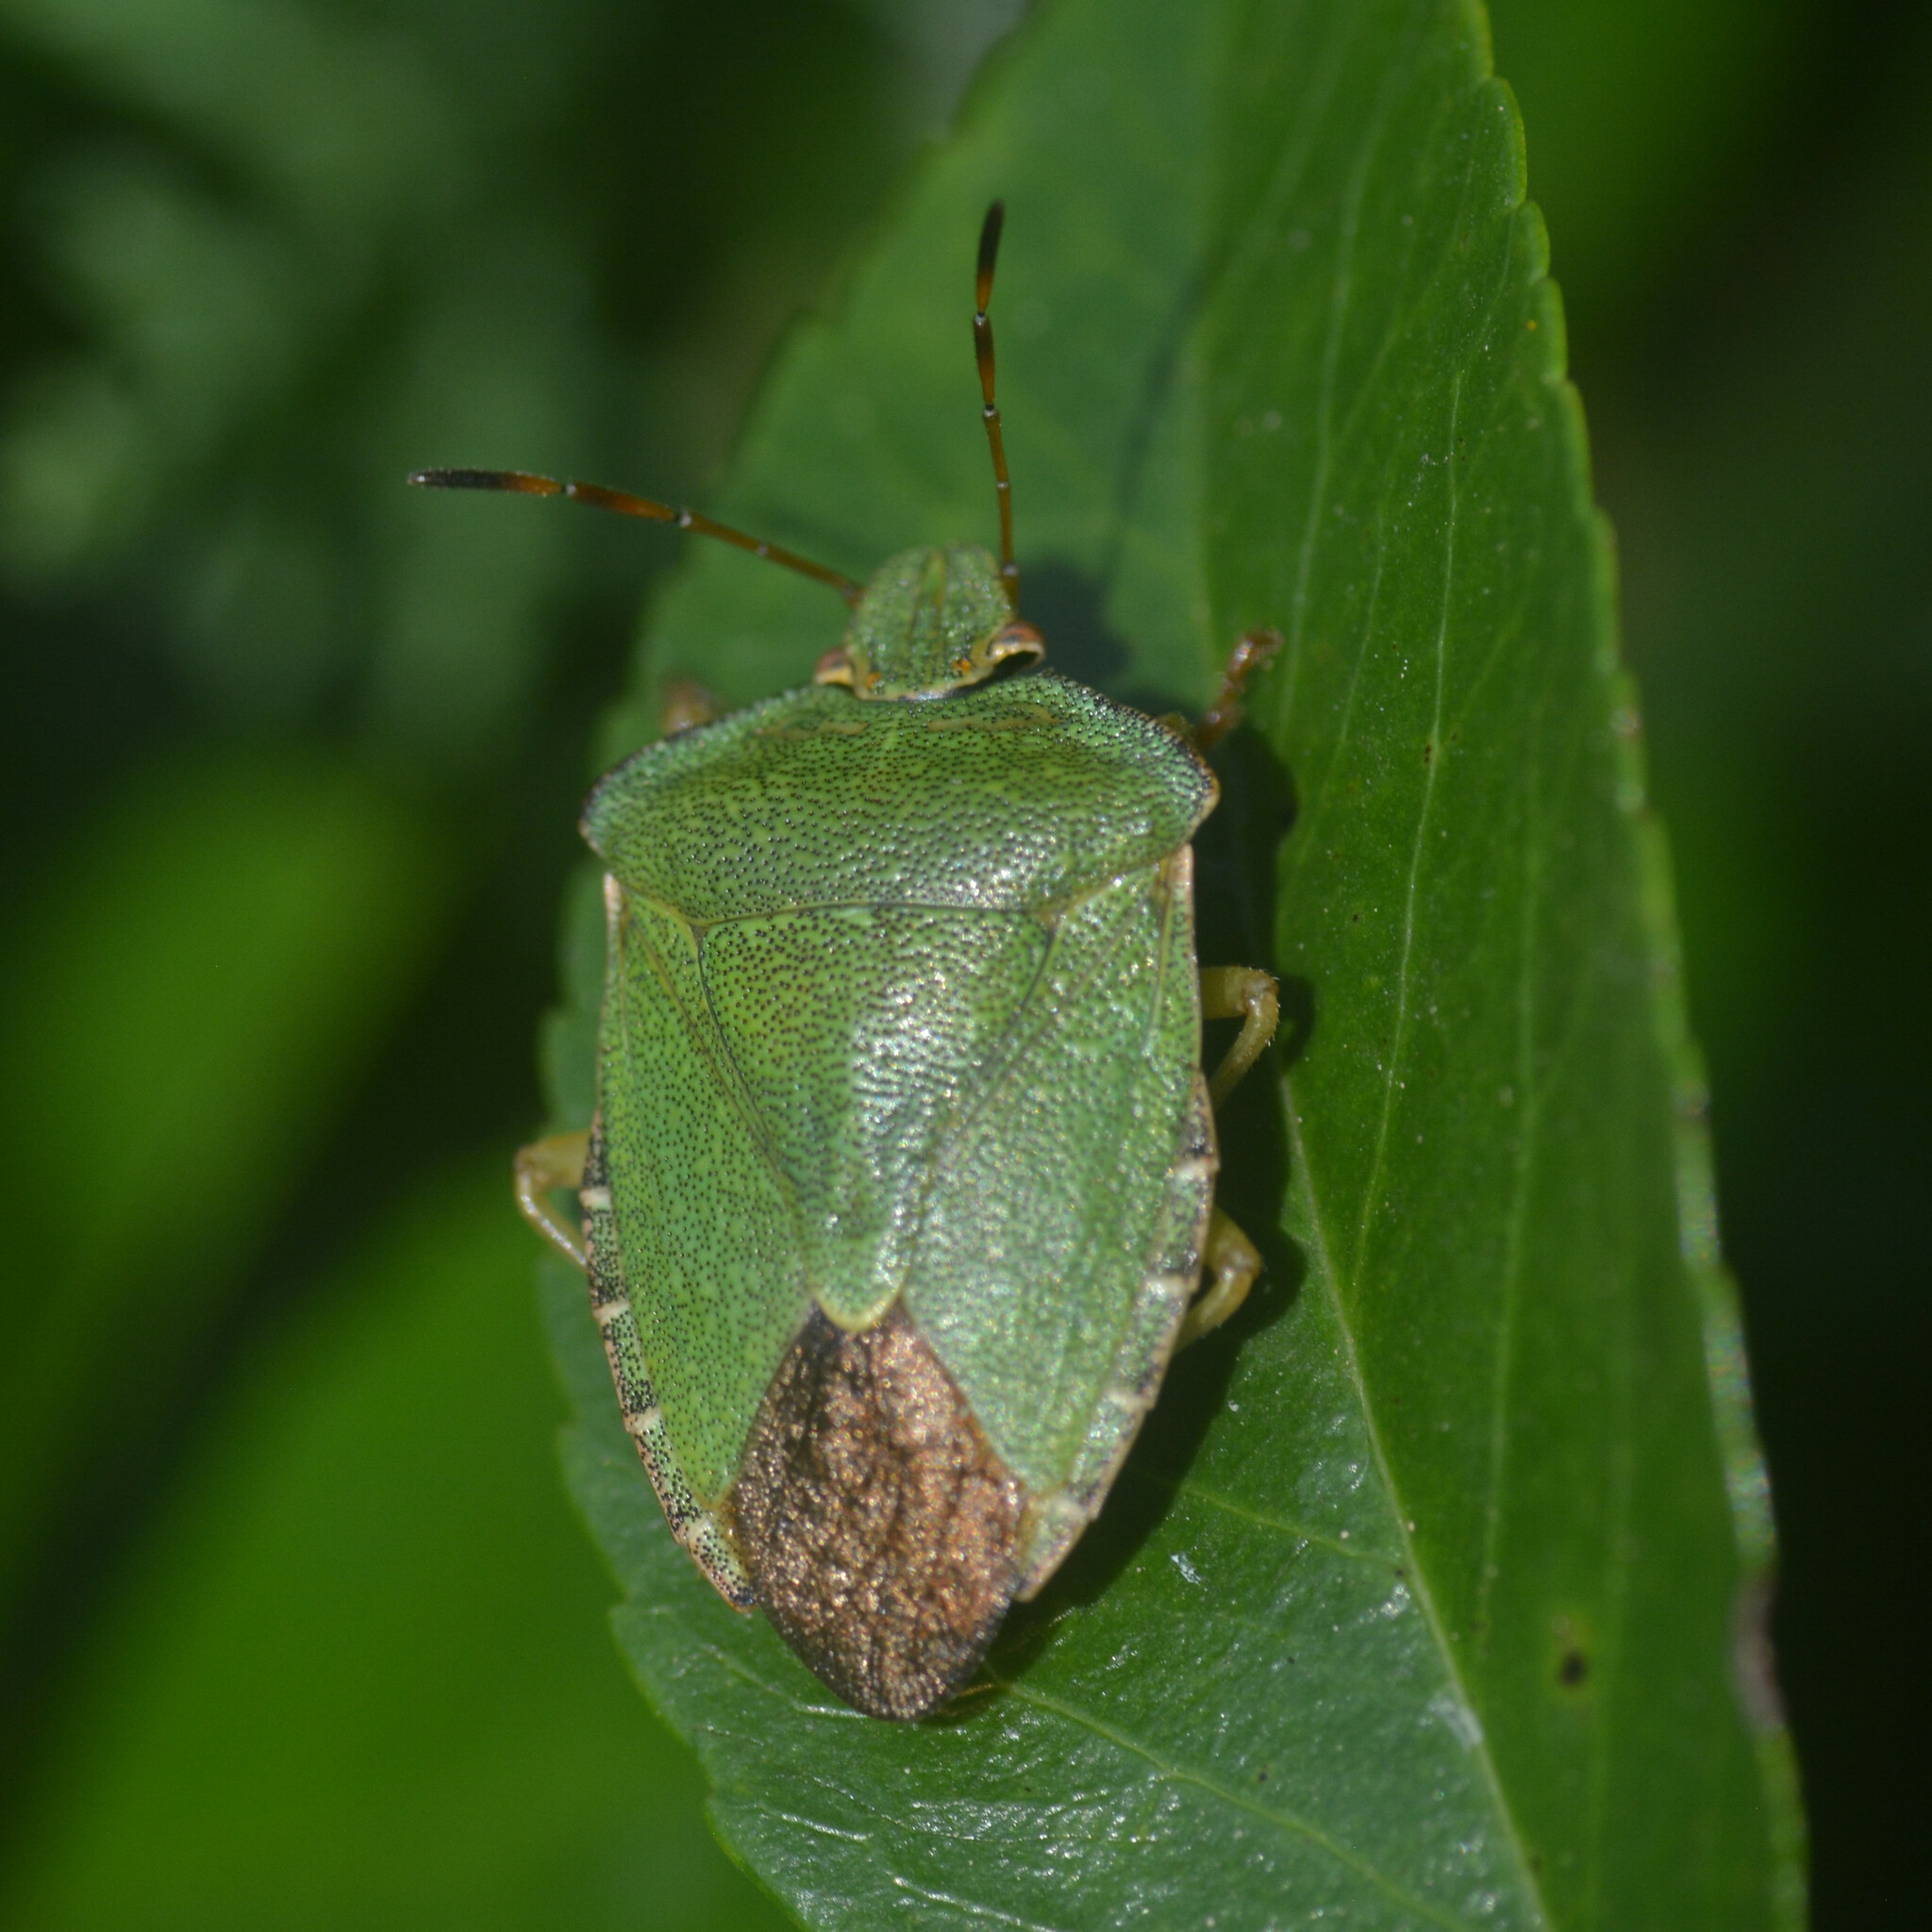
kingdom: Animalia
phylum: Arthropoda
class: Insecta
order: Hemiptera
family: Pentatomidae
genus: Palomena
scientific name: Palomena prasina
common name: Green shieldbug
